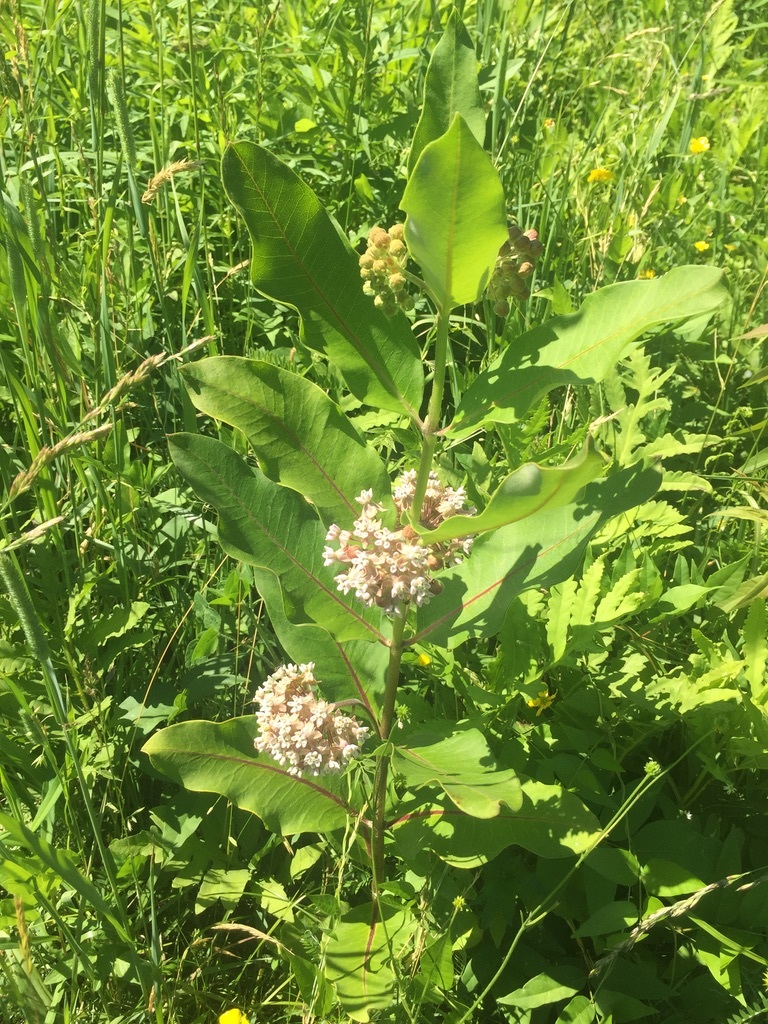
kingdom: Plantae
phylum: Tracheophyta
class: Magnoliopsida
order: Gentianales
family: Apocynaceae
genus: Asclepias
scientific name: Asclepias syriaca
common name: Common milkweed
